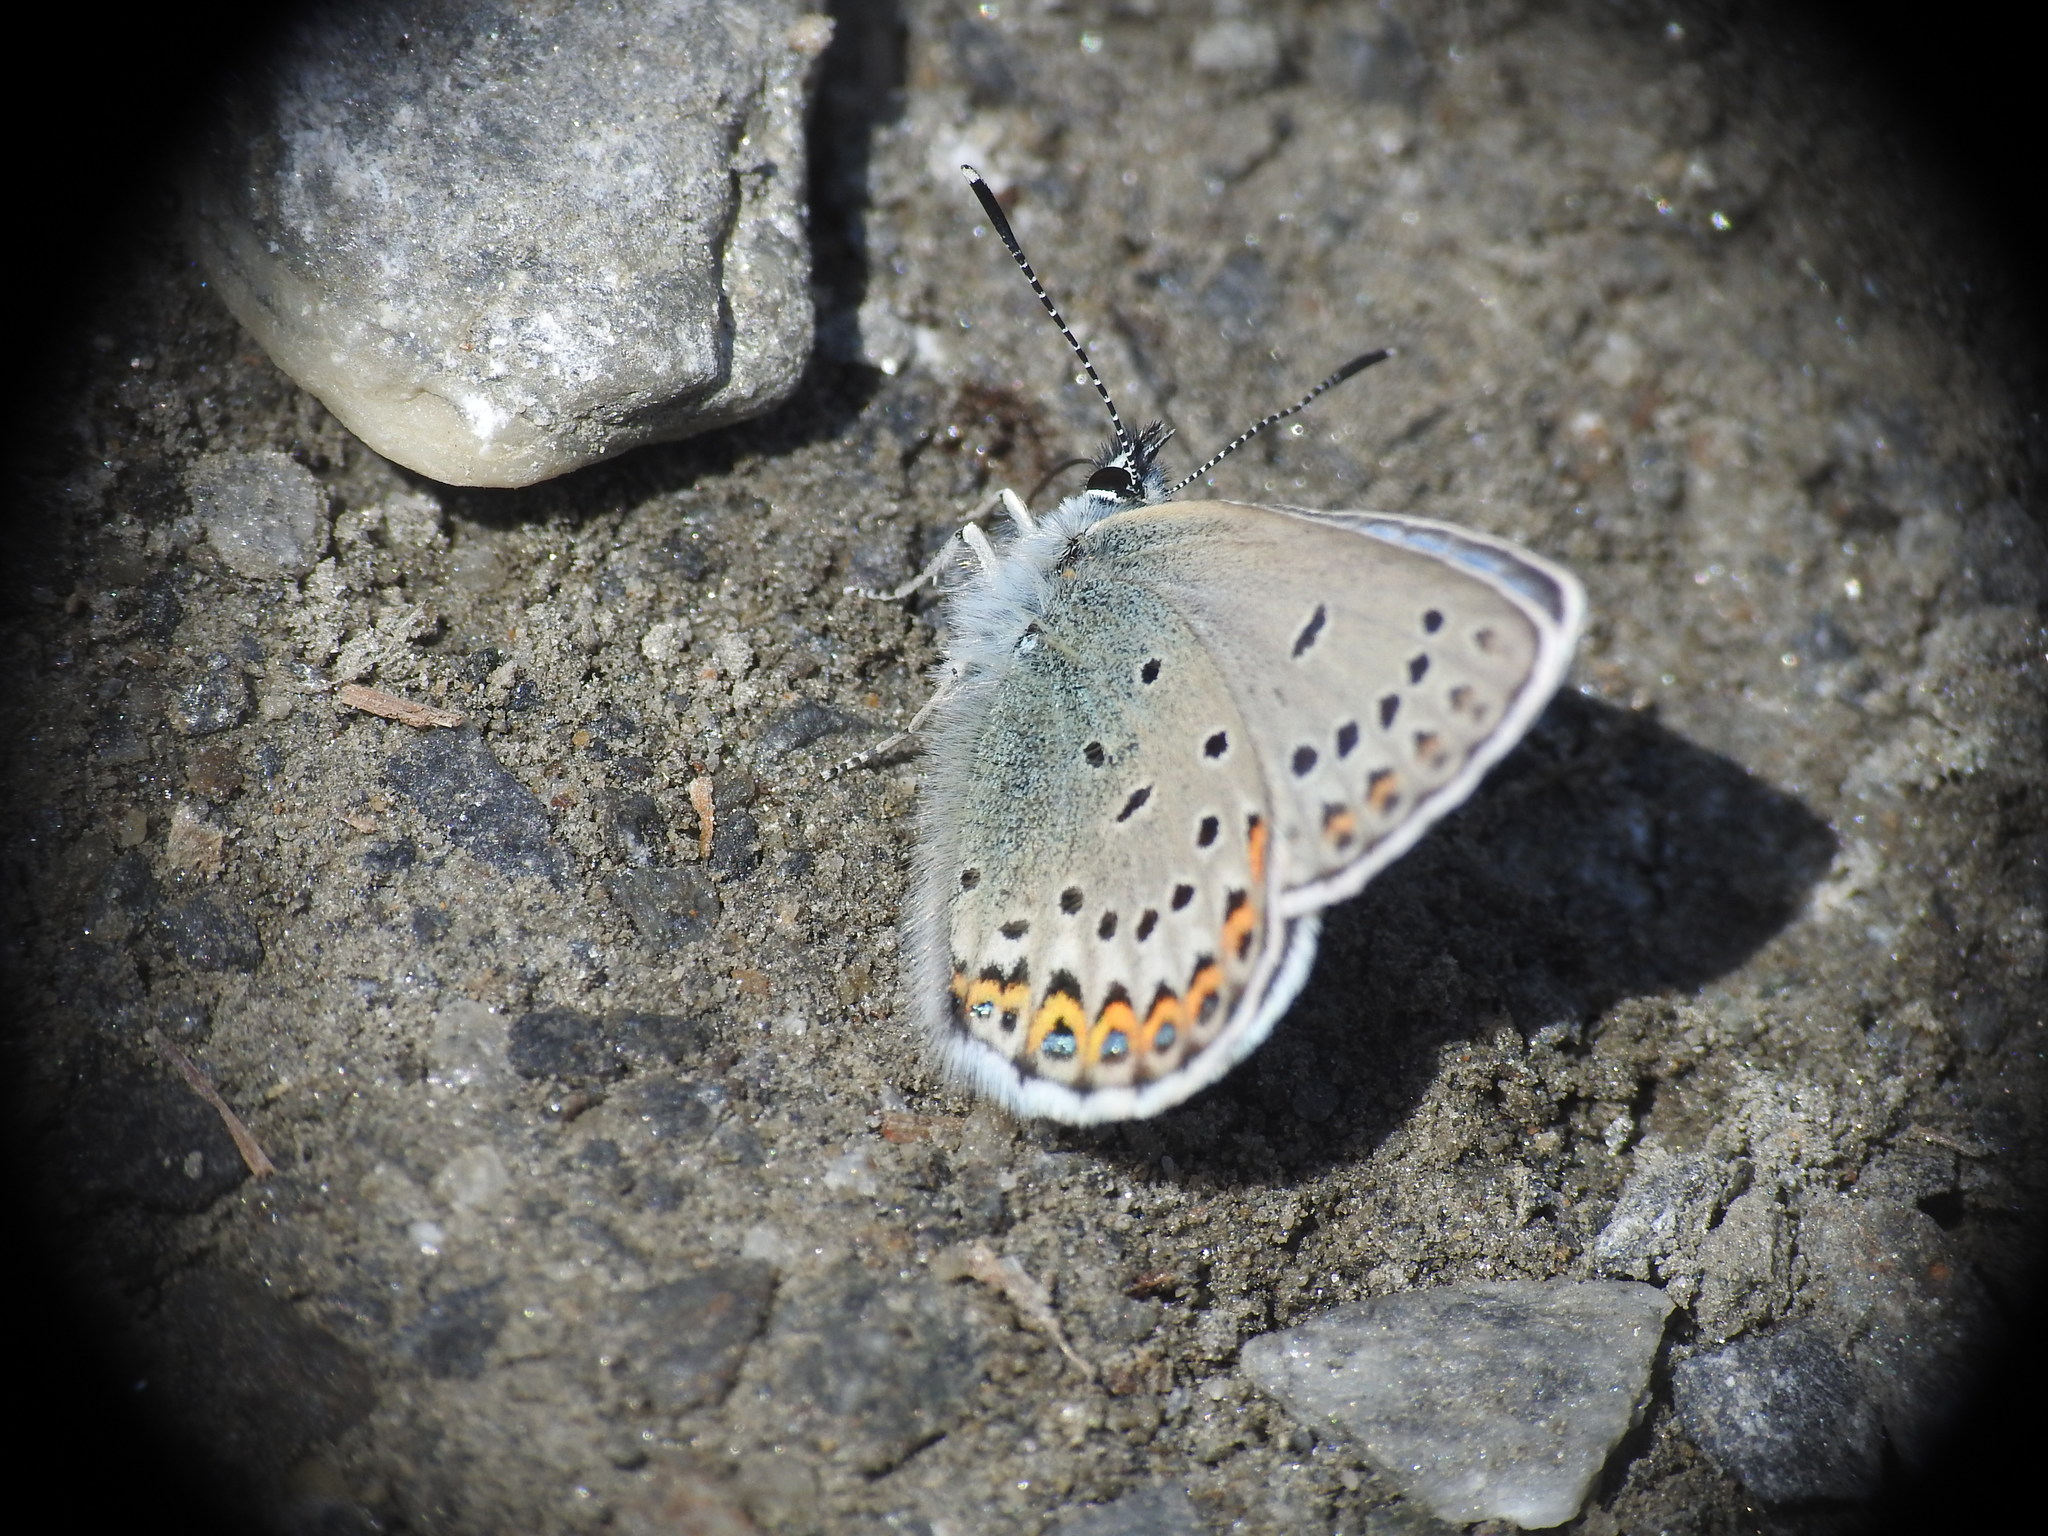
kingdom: Animalia
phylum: Arthropoda
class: Insecta
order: Lepidoptera
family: Lycaenidae
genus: Lycaeides
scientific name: Lycaeides idas
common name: Northern blue
